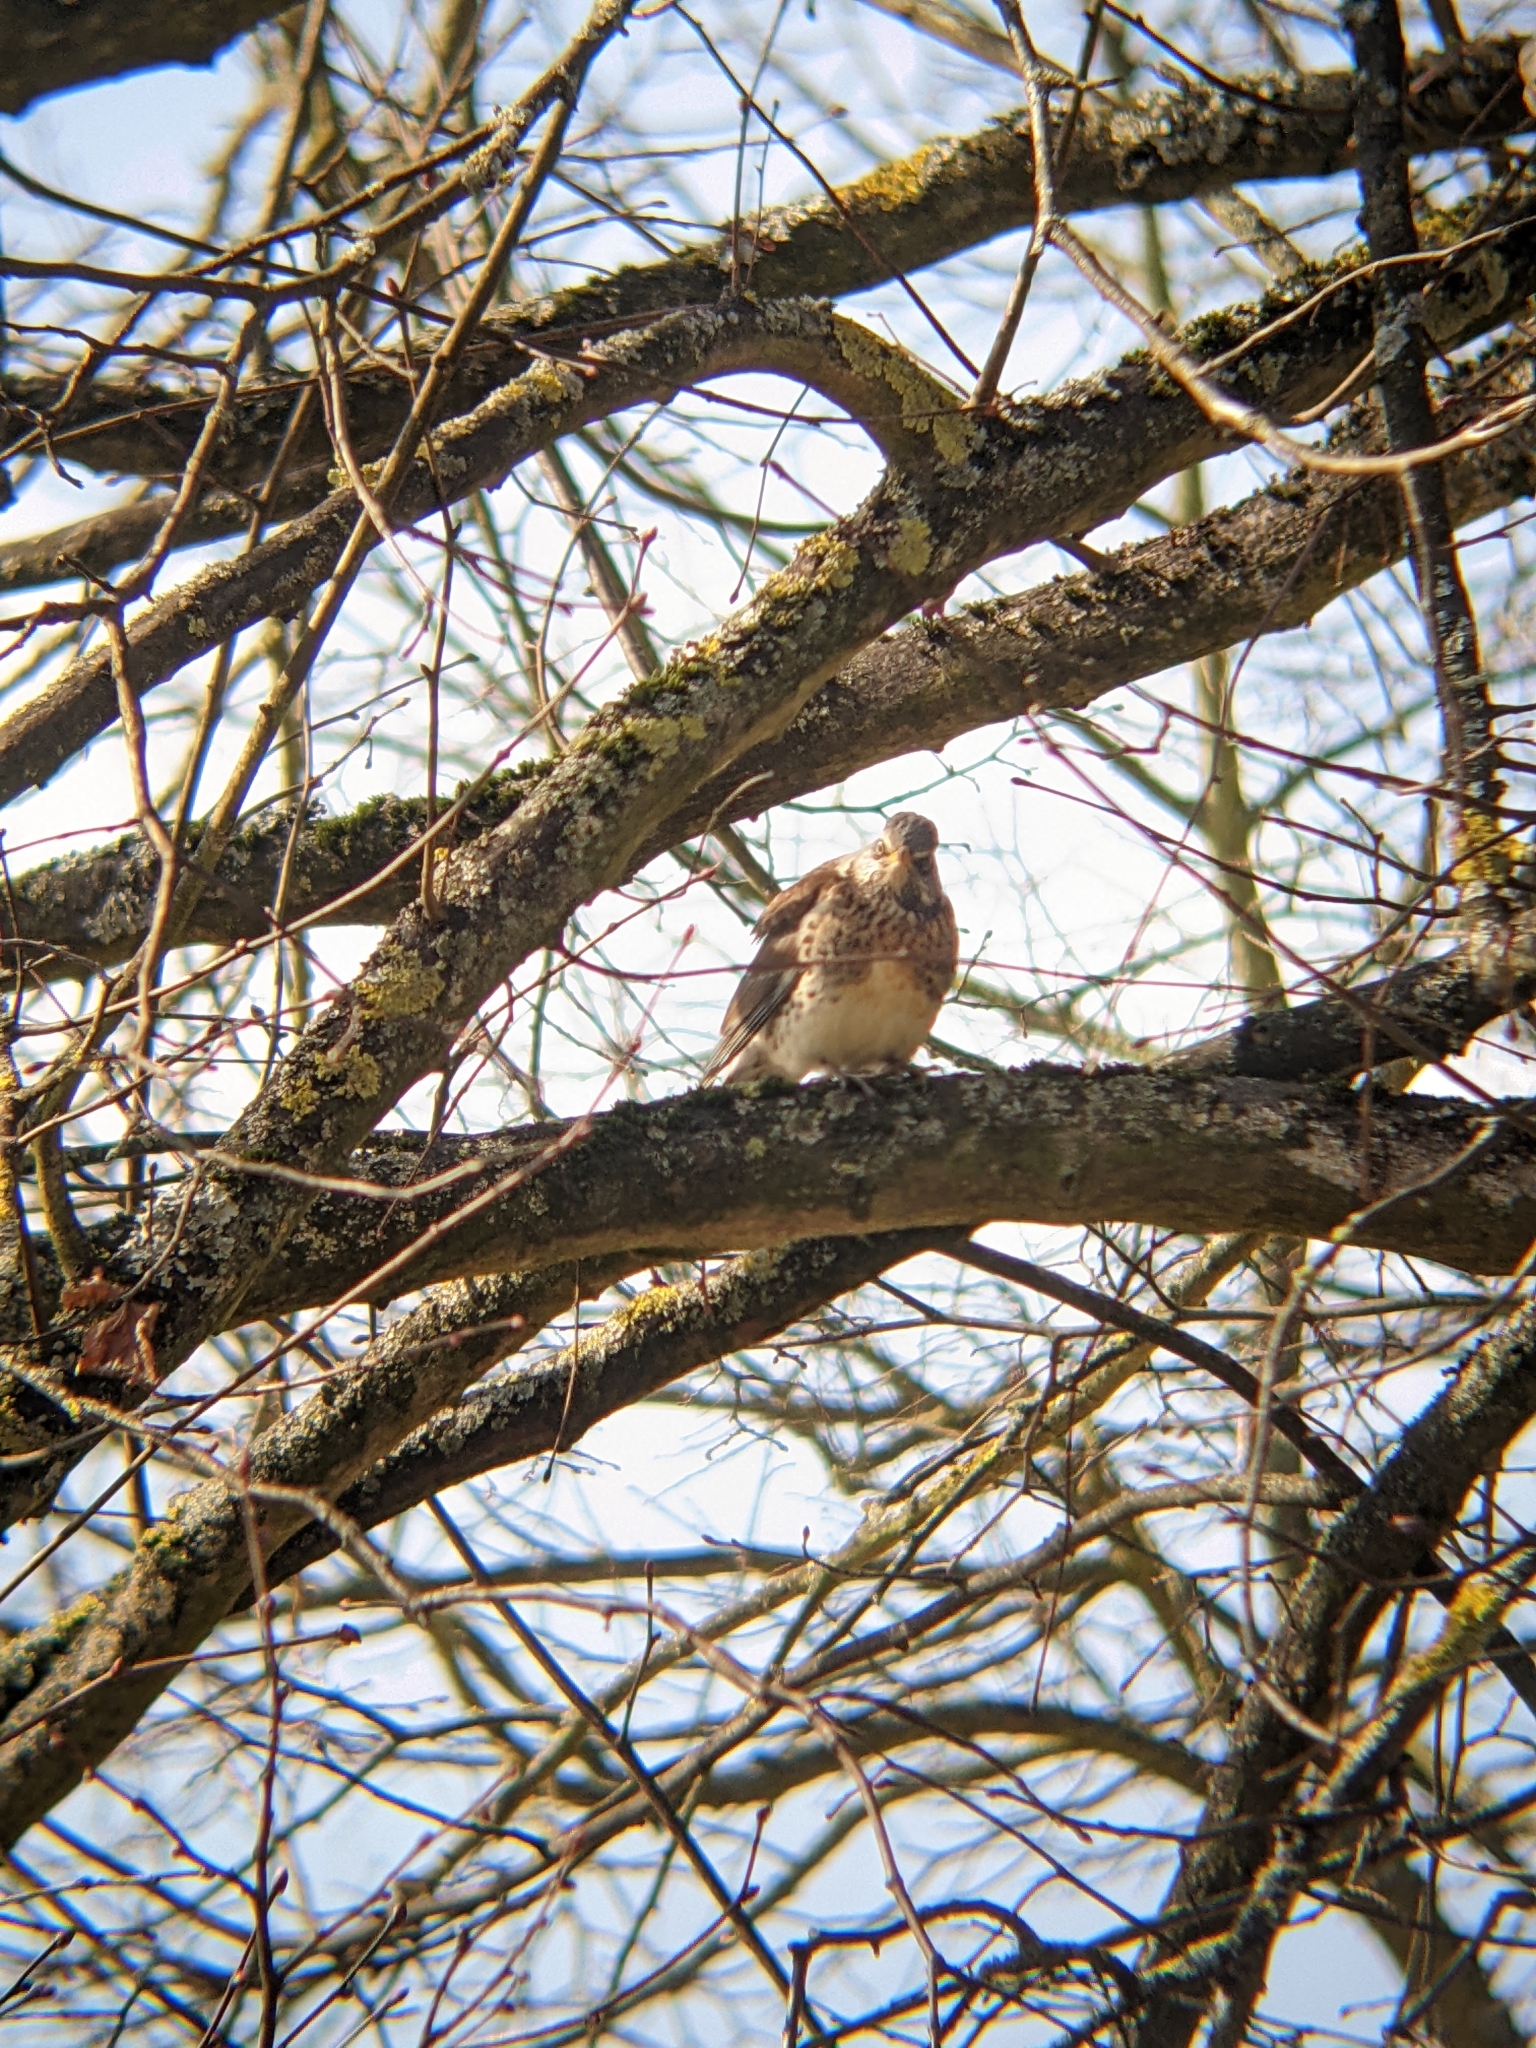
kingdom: Animalia
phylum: Chordata
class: Aves
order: Passeriformes
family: Turdidae
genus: Turdus
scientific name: Turdus pilaris
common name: Fieldfare
